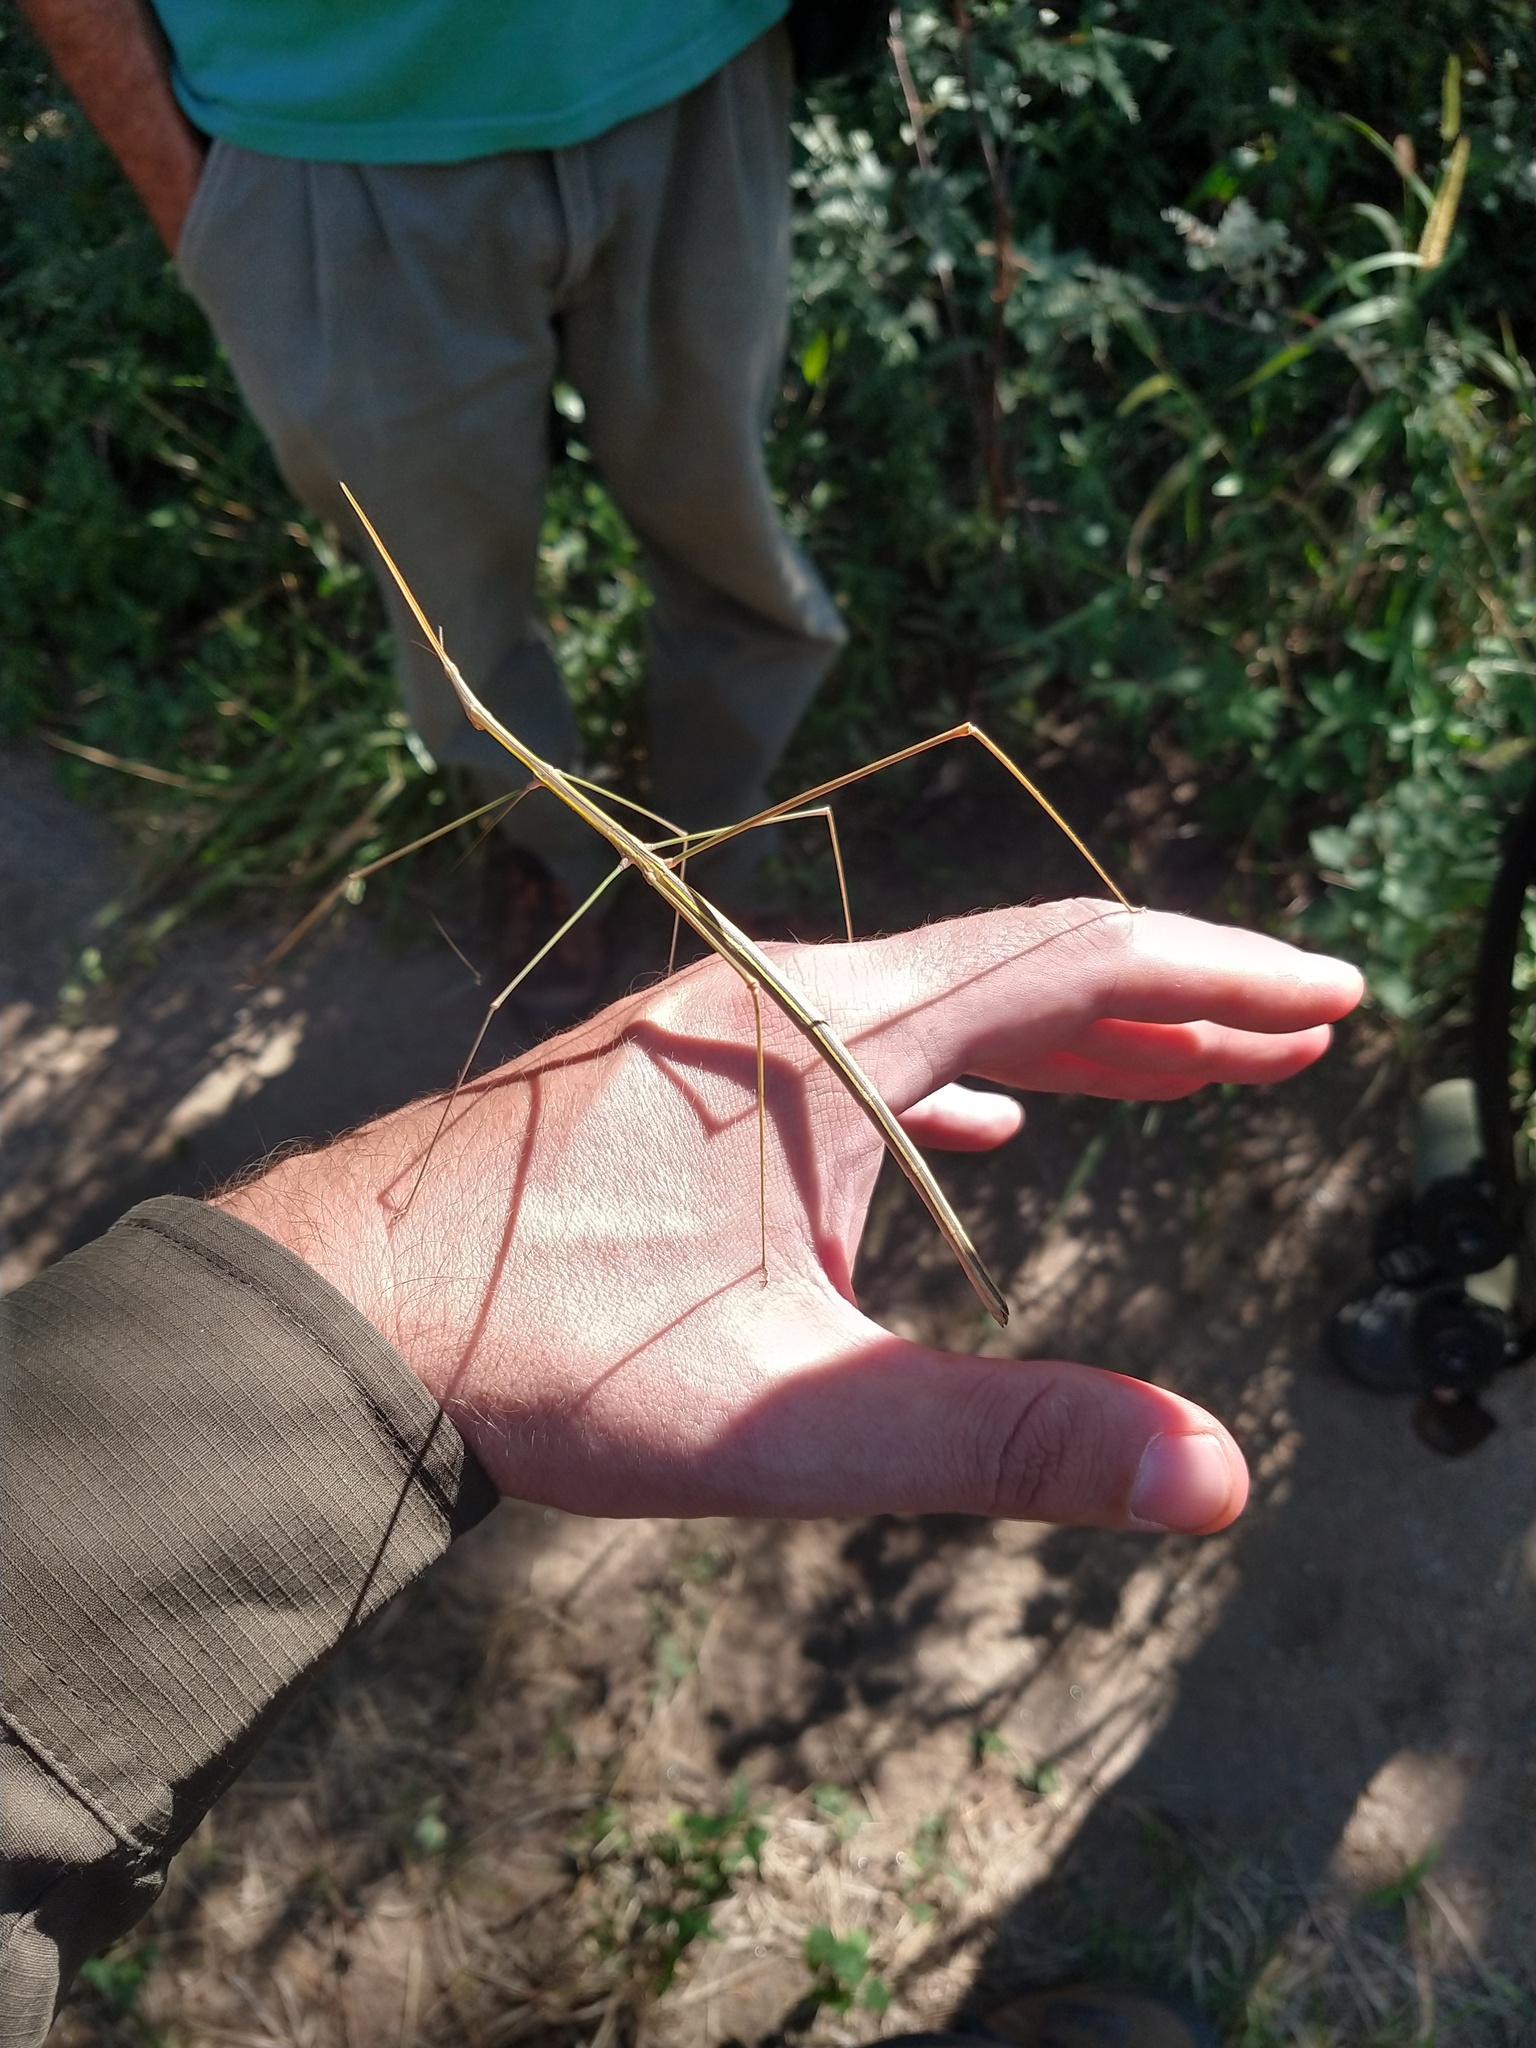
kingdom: Animalia
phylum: Arthropoda
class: Insecta
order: Orthoptera
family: Proscopiidae
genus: Carphoproscopia
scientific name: Carphoproscopia lancea
